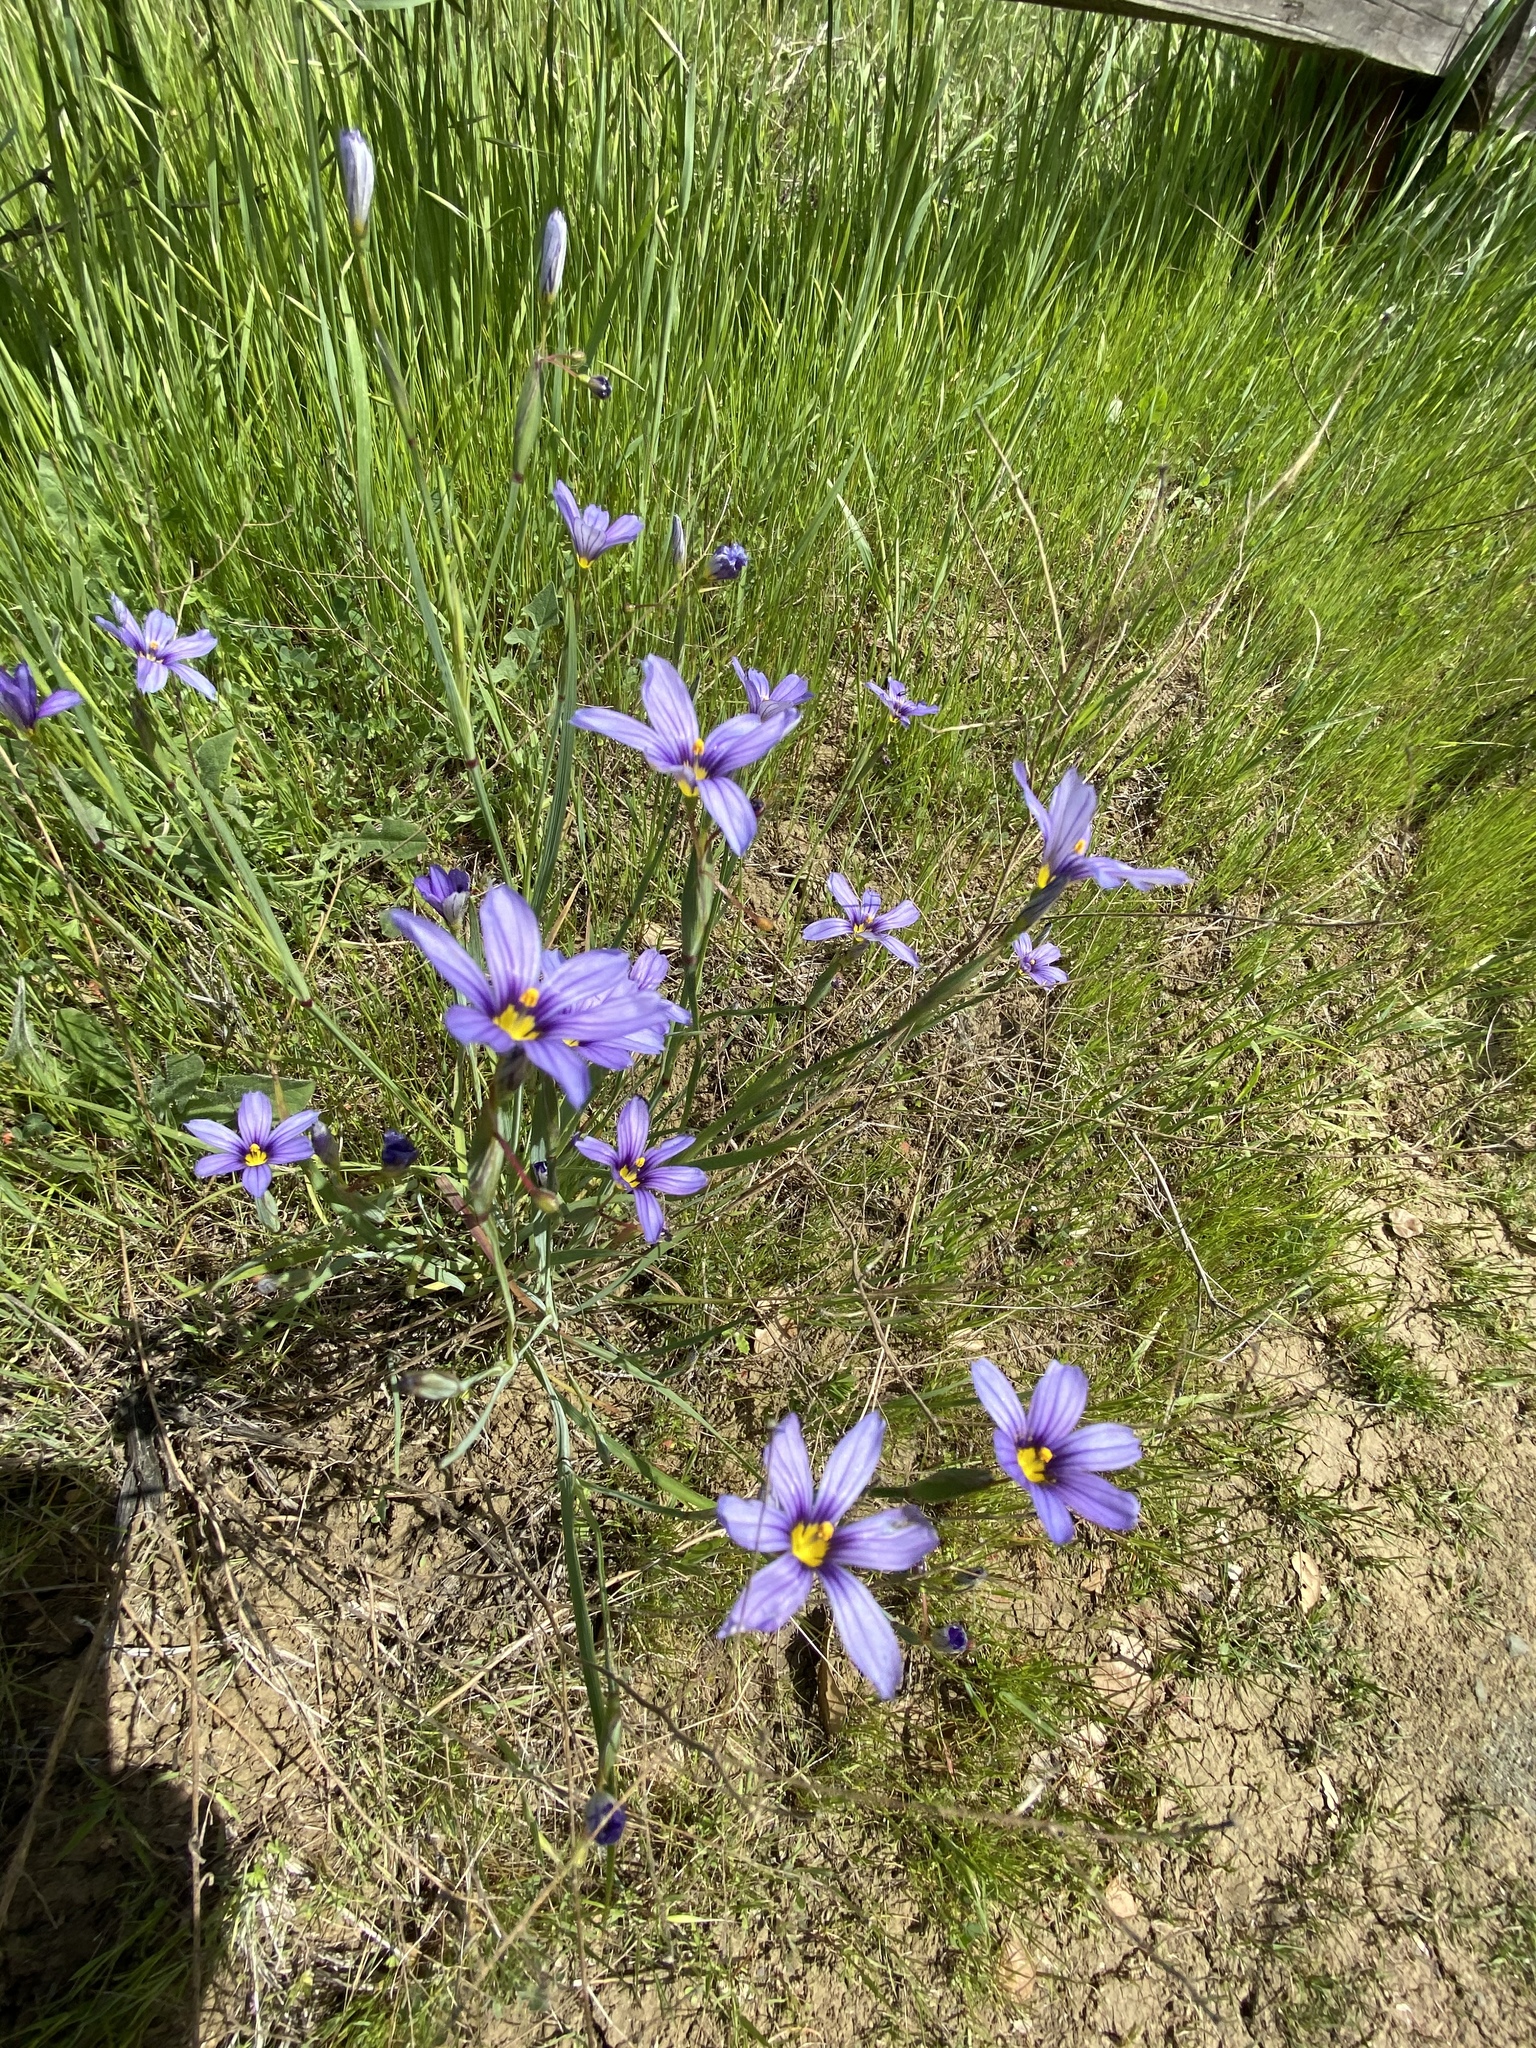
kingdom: Plantae
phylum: Tracheophyta
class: Liliopsida
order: Asparagales
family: Iridaceae
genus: Sisyrinchium
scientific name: Sisyrinchium bellum
